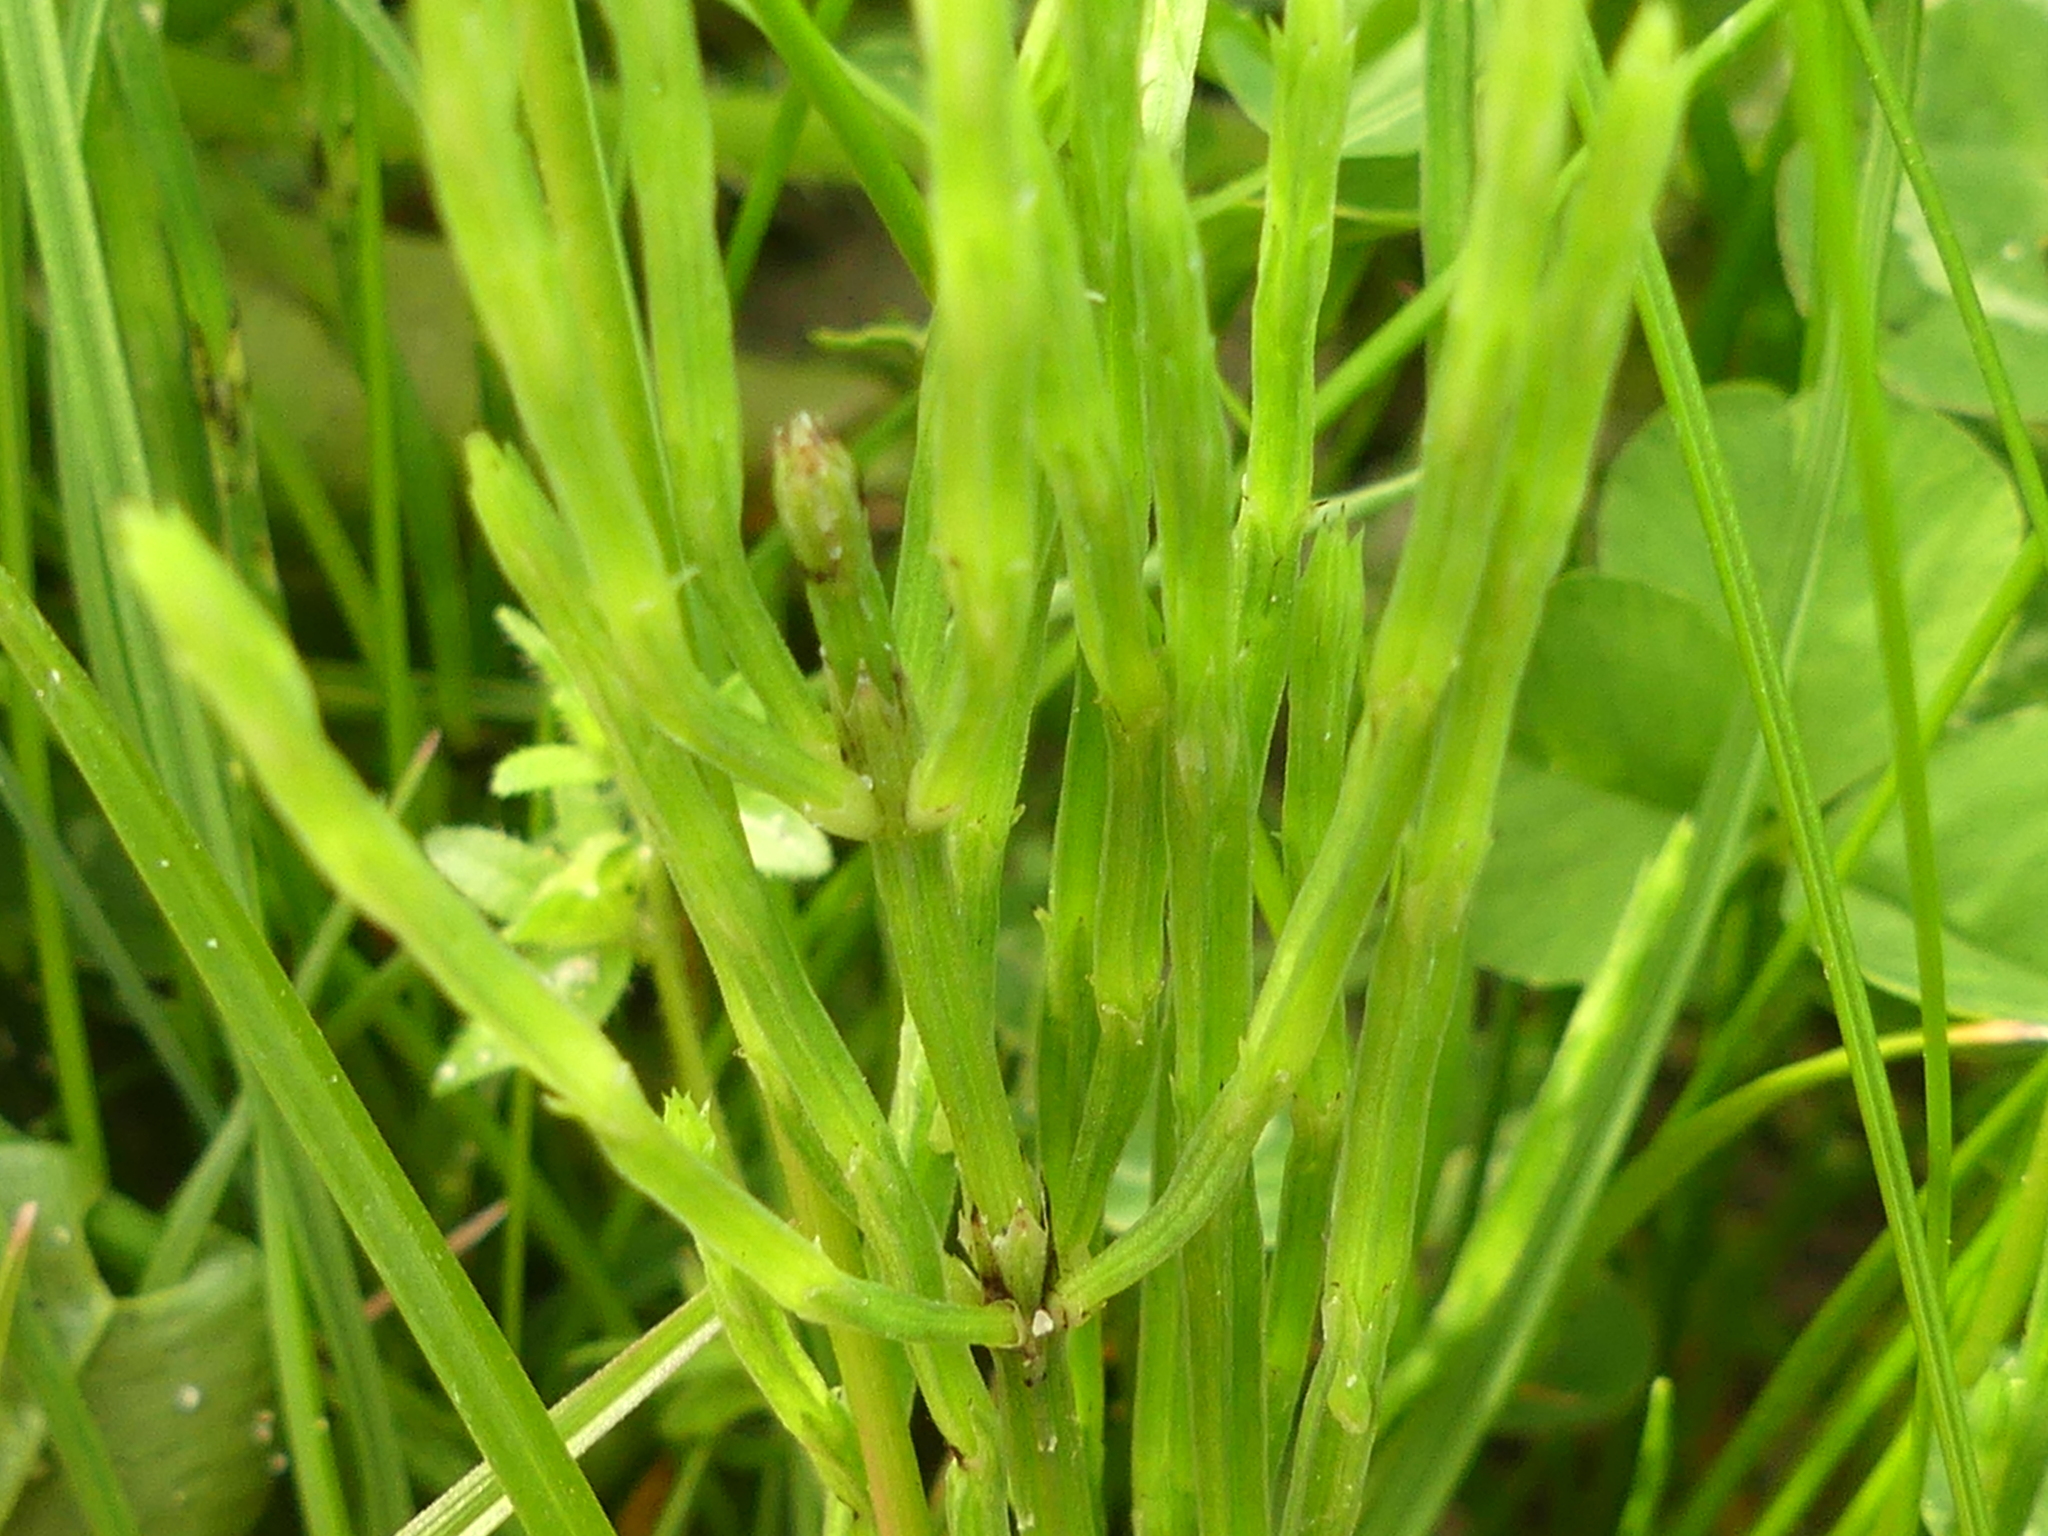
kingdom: Plantae
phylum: Tracheophyta
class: Polypodiopsida
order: Equisetales
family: Equisetaceae
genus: Equisetum
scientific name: Equisetum arvense
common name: Field horsetail
